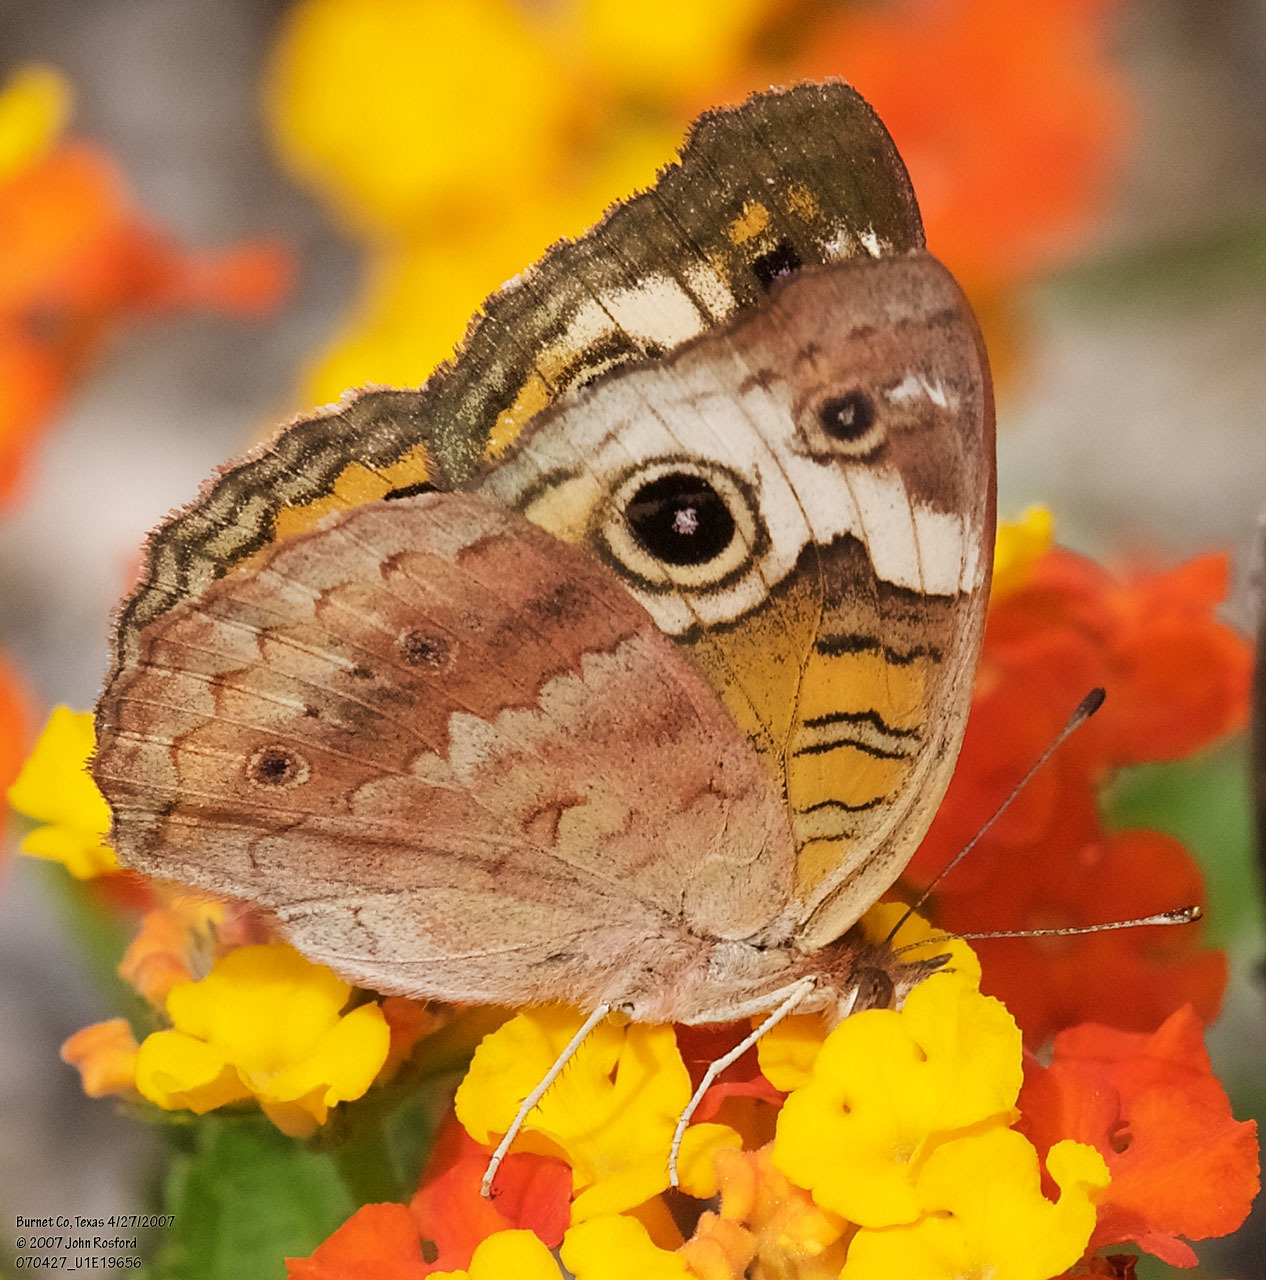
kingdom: Animalia
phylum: Arthropoda
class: Insecta
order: Lepidoptera
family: Nymphalidae
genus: Junonia
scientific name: Junonia coenia
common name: Common buckeye
